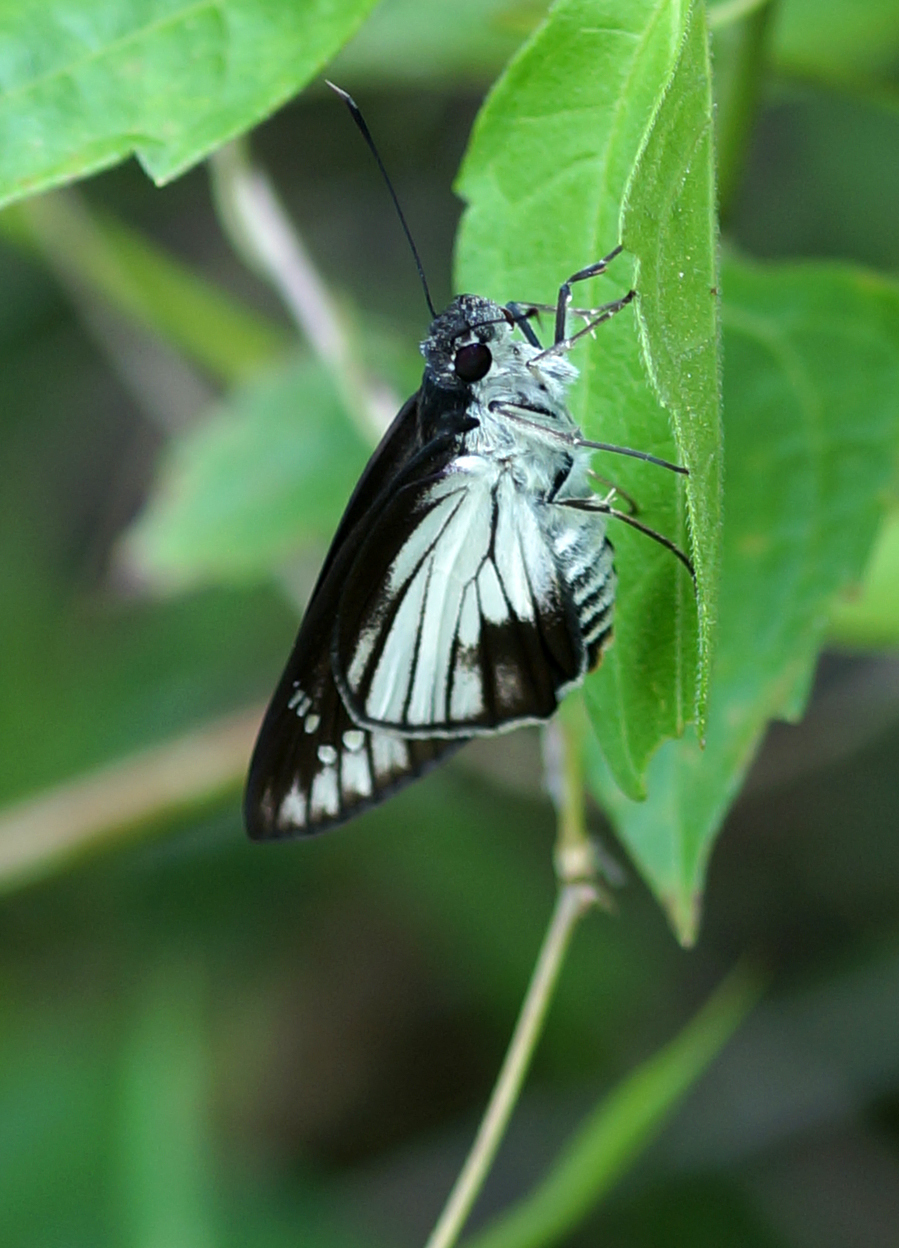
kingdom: Animalia
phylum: Arthropoda
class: Insecta
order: Lepidoptera
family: Hesperiidae
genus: Unkana
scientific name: Unkana ambasa
